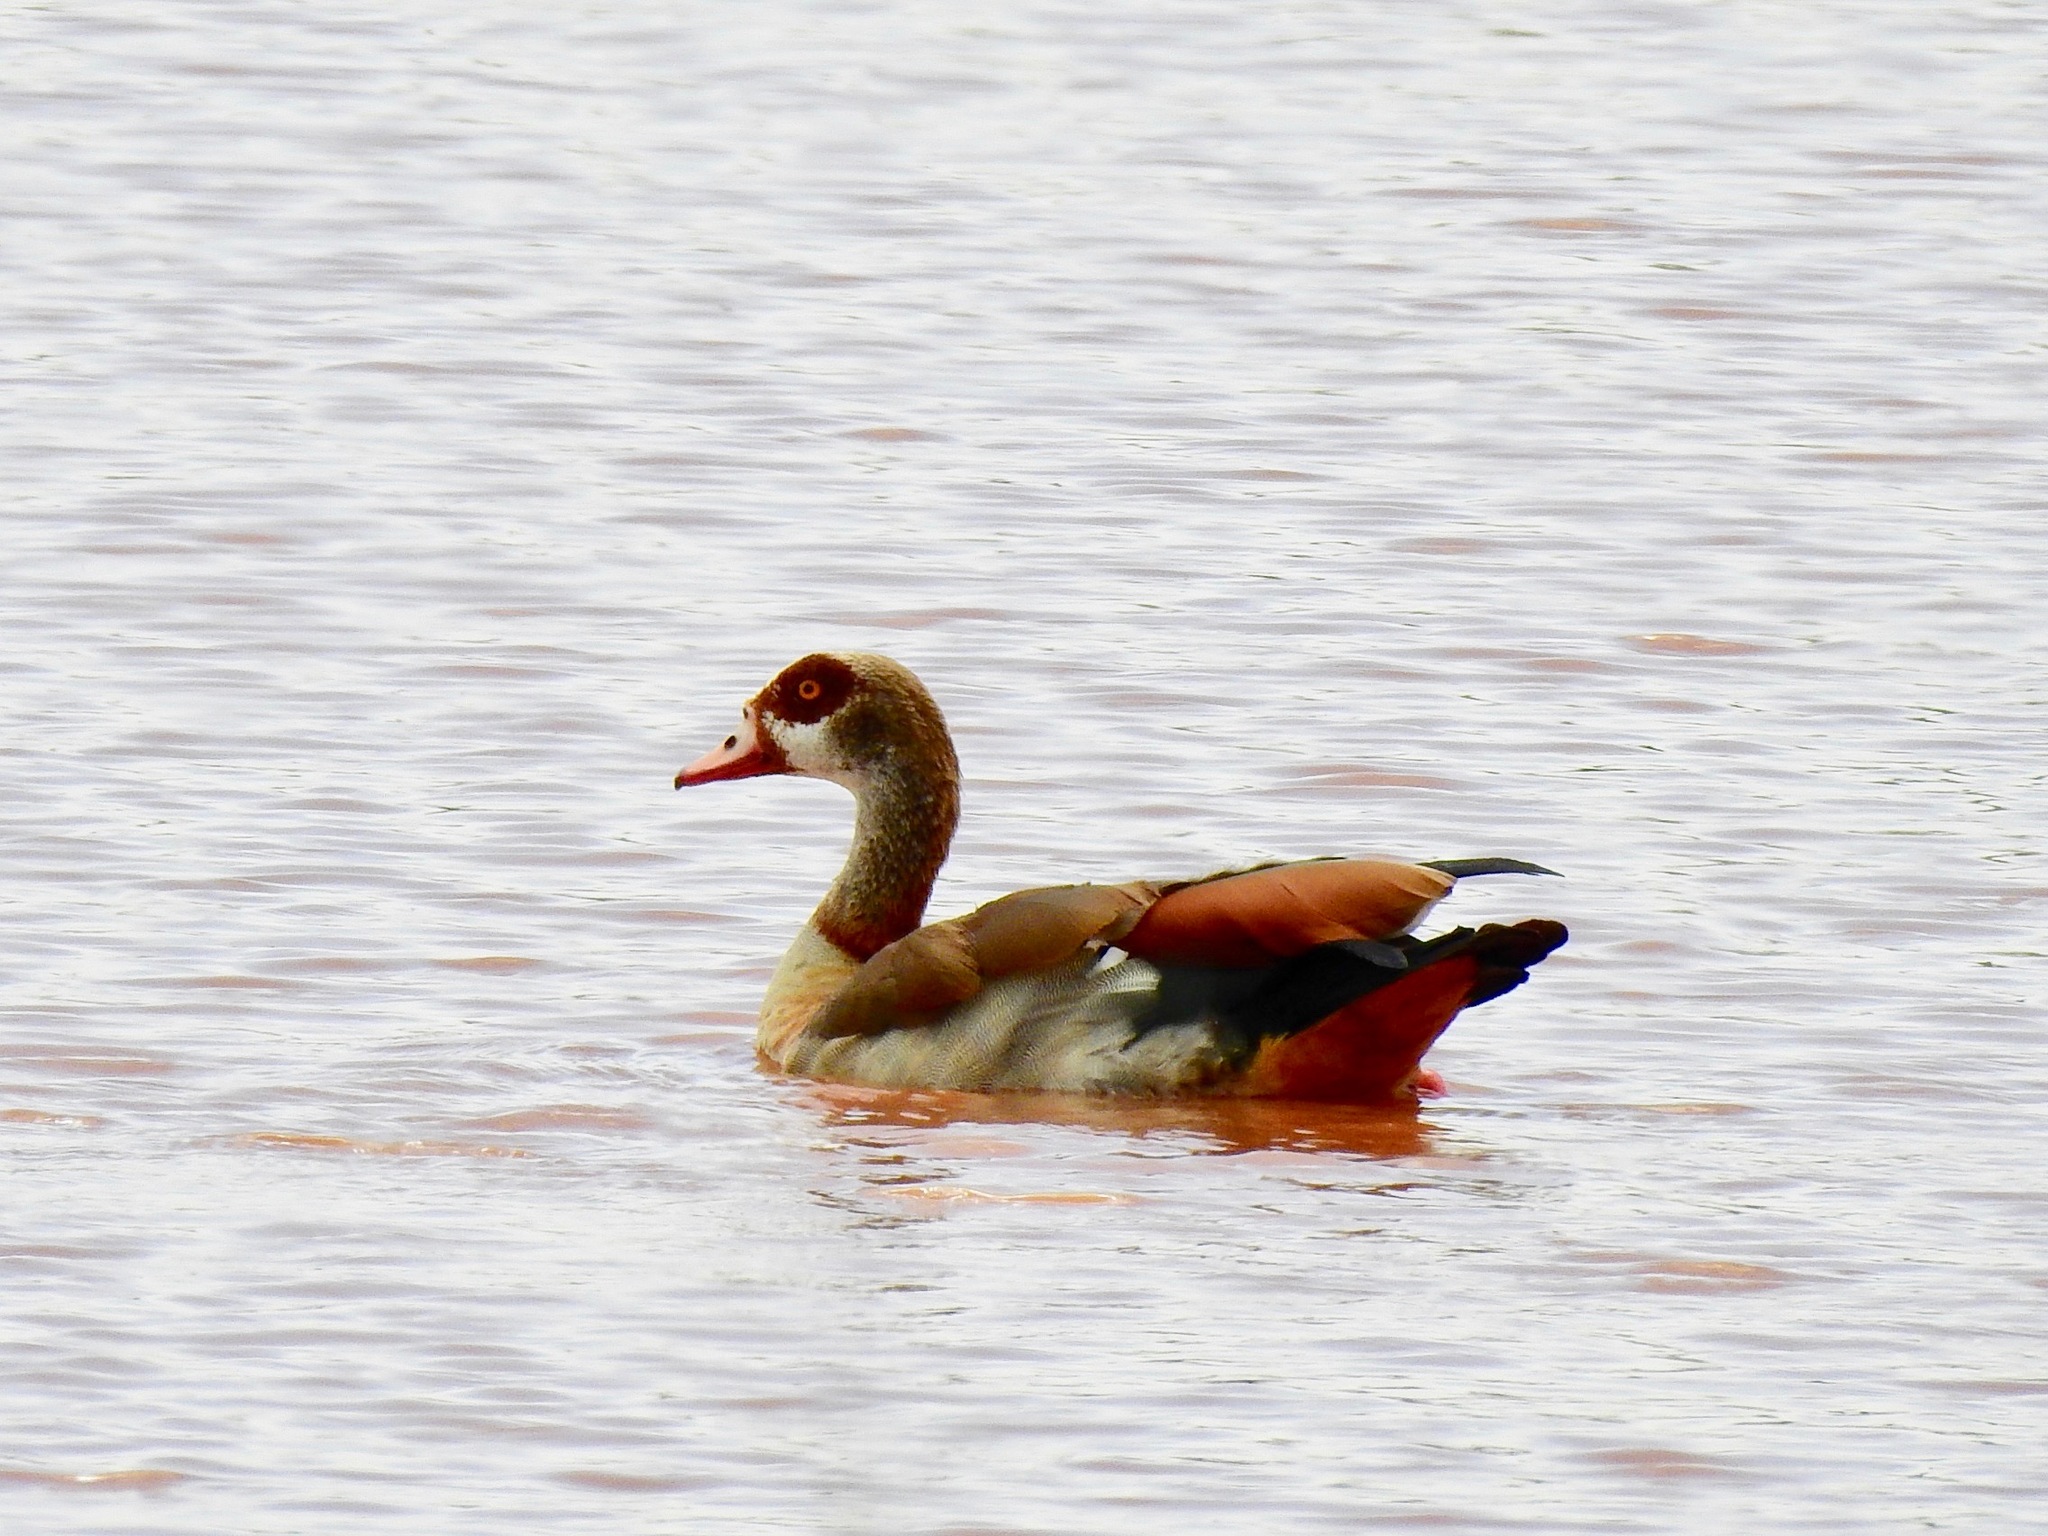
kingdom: Animalia
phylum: Chordata
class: Aves
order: Anseriformes
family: Anatidae
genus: Alopochen
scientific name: Alopochen aegyptiaca
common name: Egyptian goose
